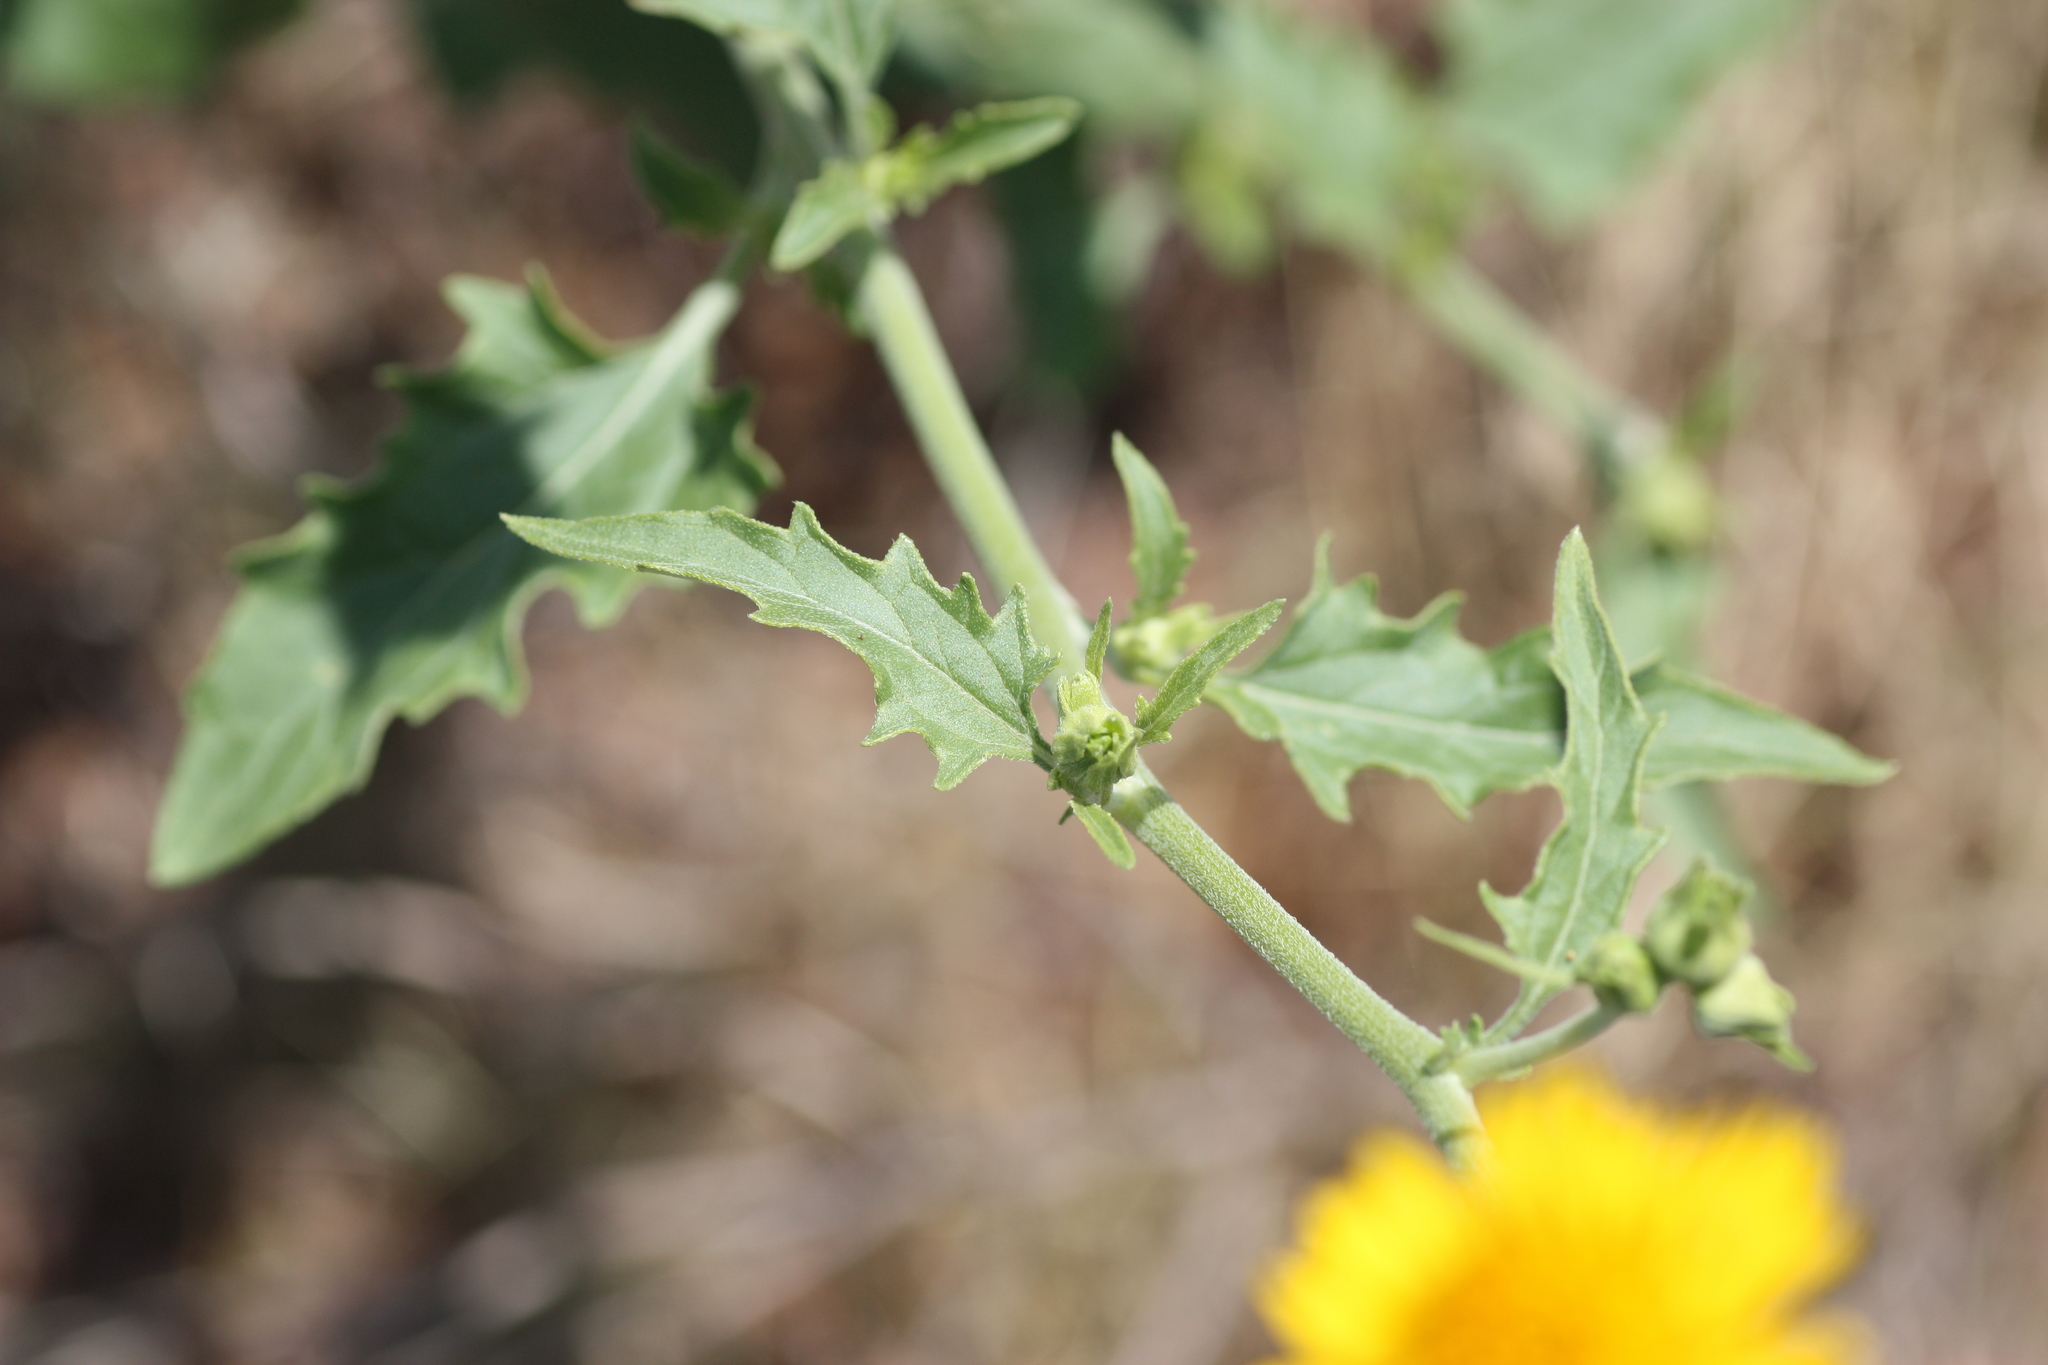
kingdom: Plantae
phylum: Tracheophyta
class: Magnoliopsida
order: Asterales
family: Asteraceae
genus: Verbesina
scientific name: Verbesina encelioides
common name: Golden crownbeard
